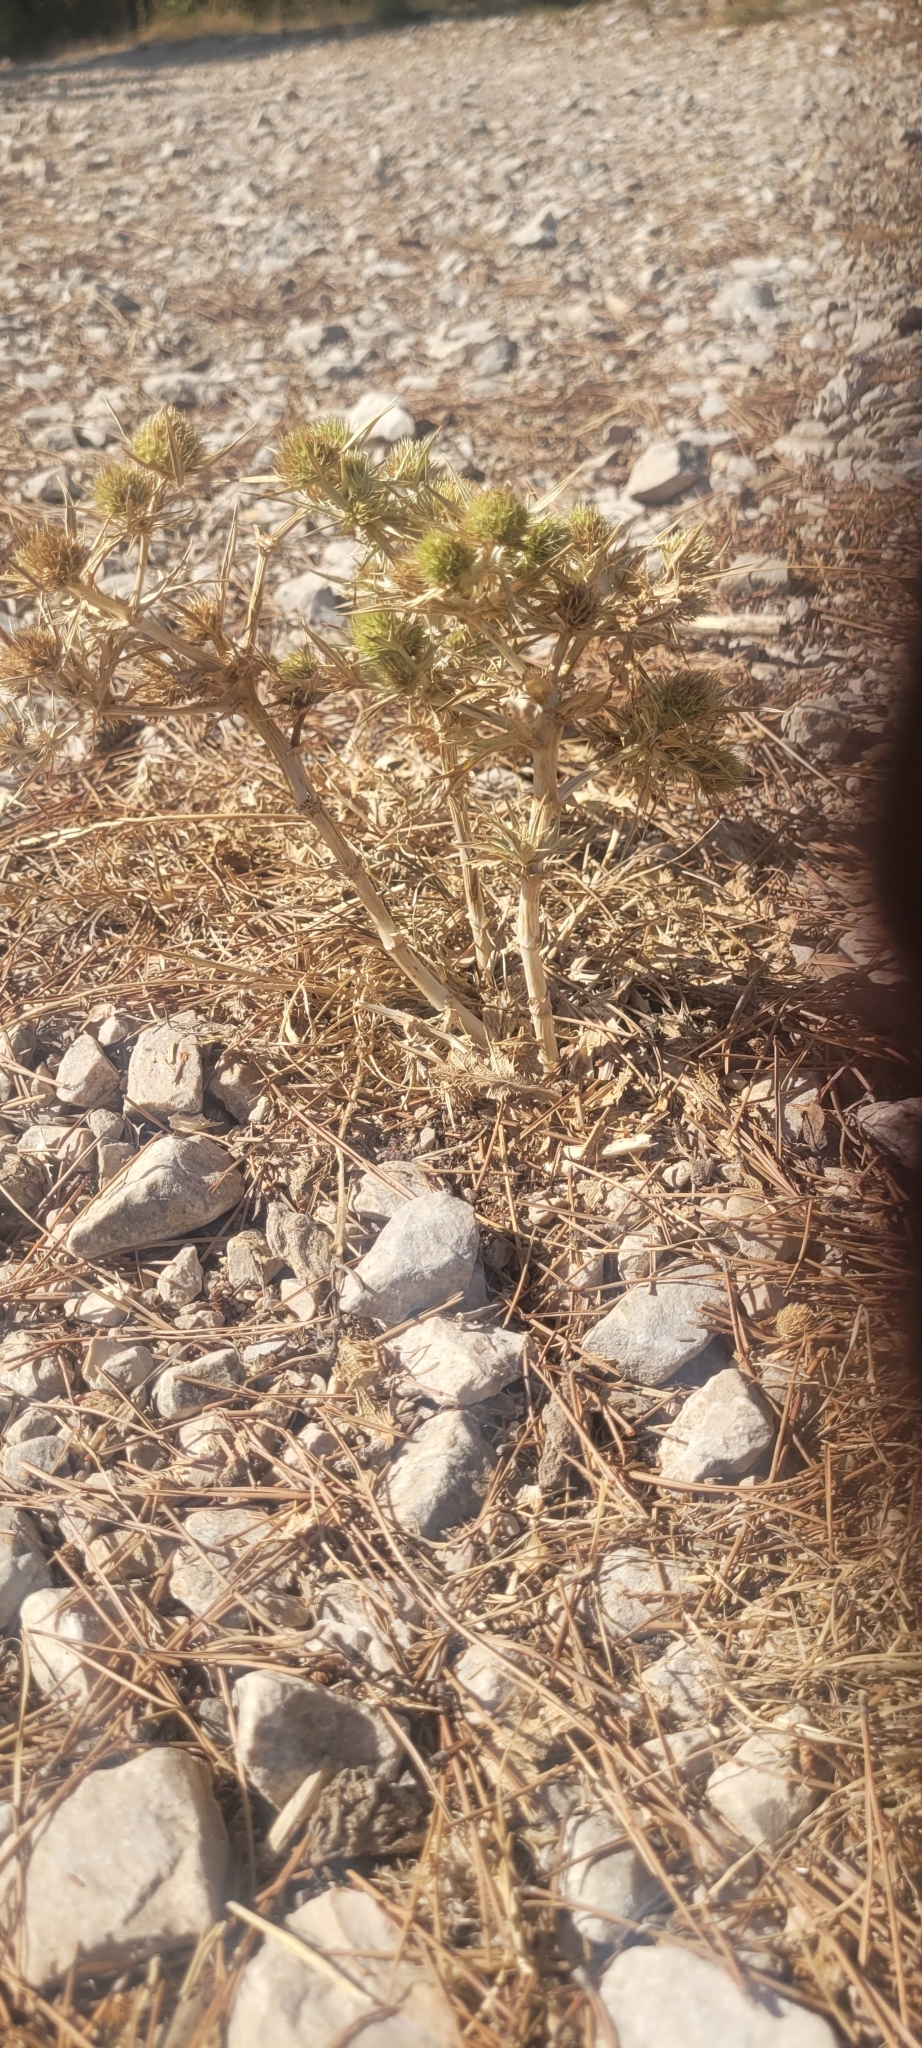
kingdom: Plantae
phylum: Tracheophyta
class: Magnoliopsida
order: Apiales
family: Apiaceae
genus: Eryngium
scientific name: Eryngium campestre
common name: Field eryngo
